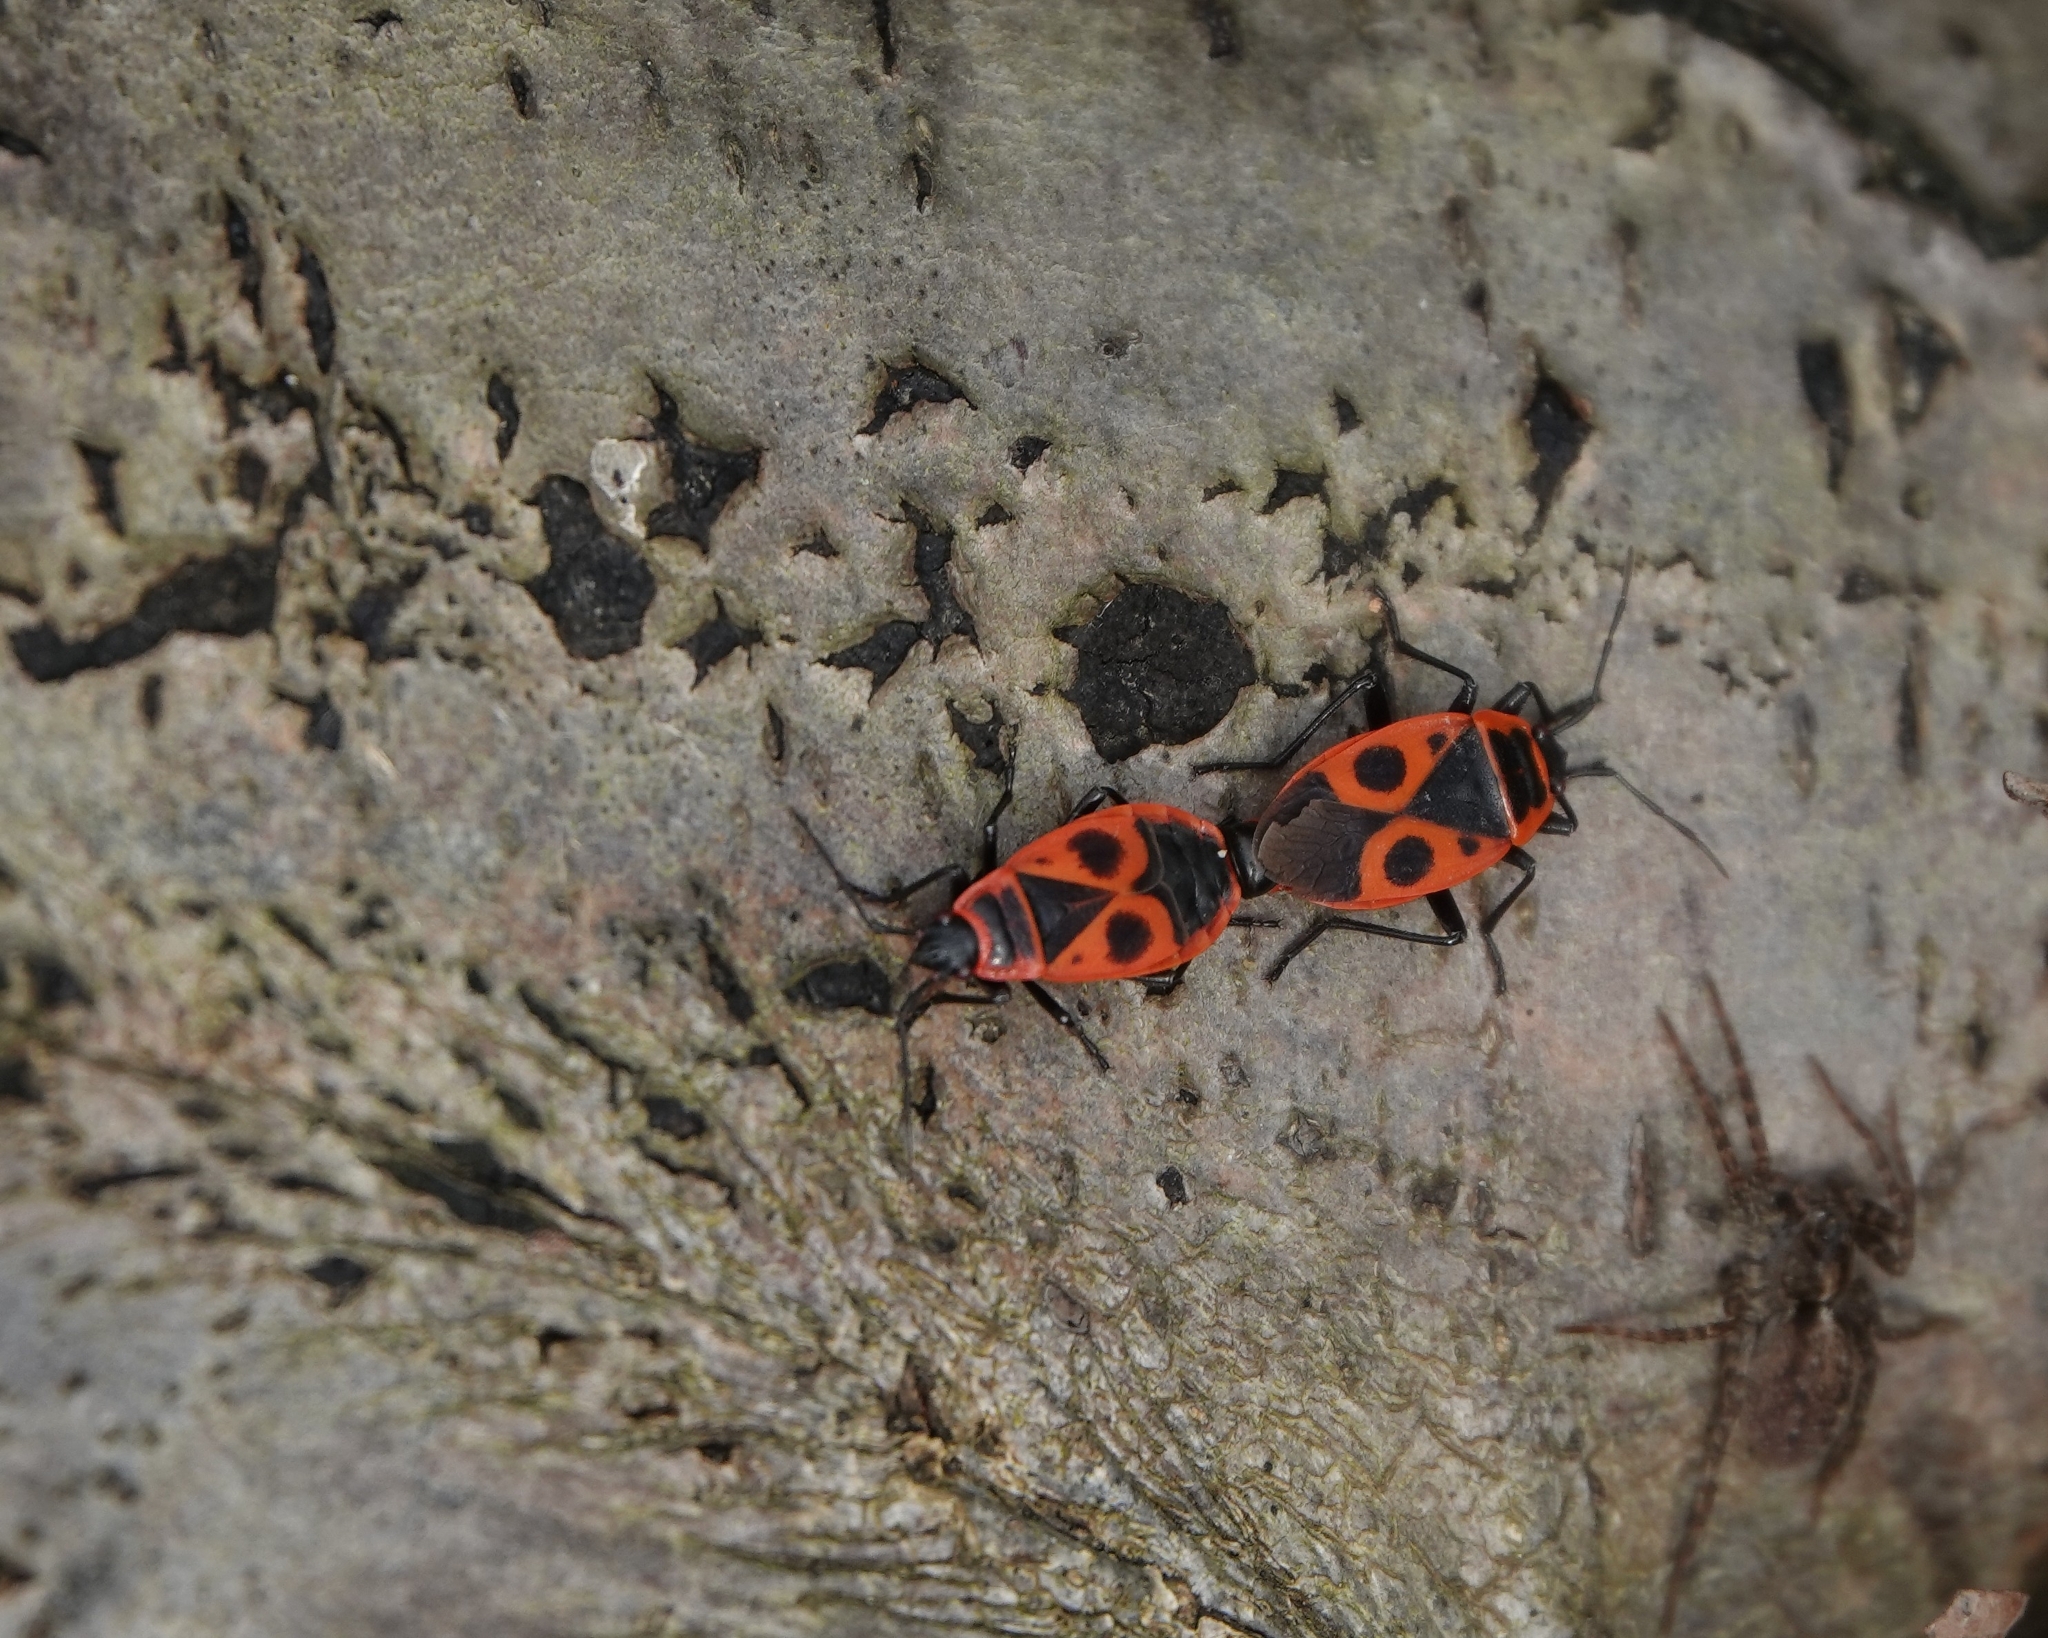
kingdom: Animalia
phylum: Arthropoda
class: Insecta
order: Hemiptera
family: Pyrrhocoridae
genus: Pyrrhocoris
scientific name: Pyrrhocoris apterus
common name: Firebug
